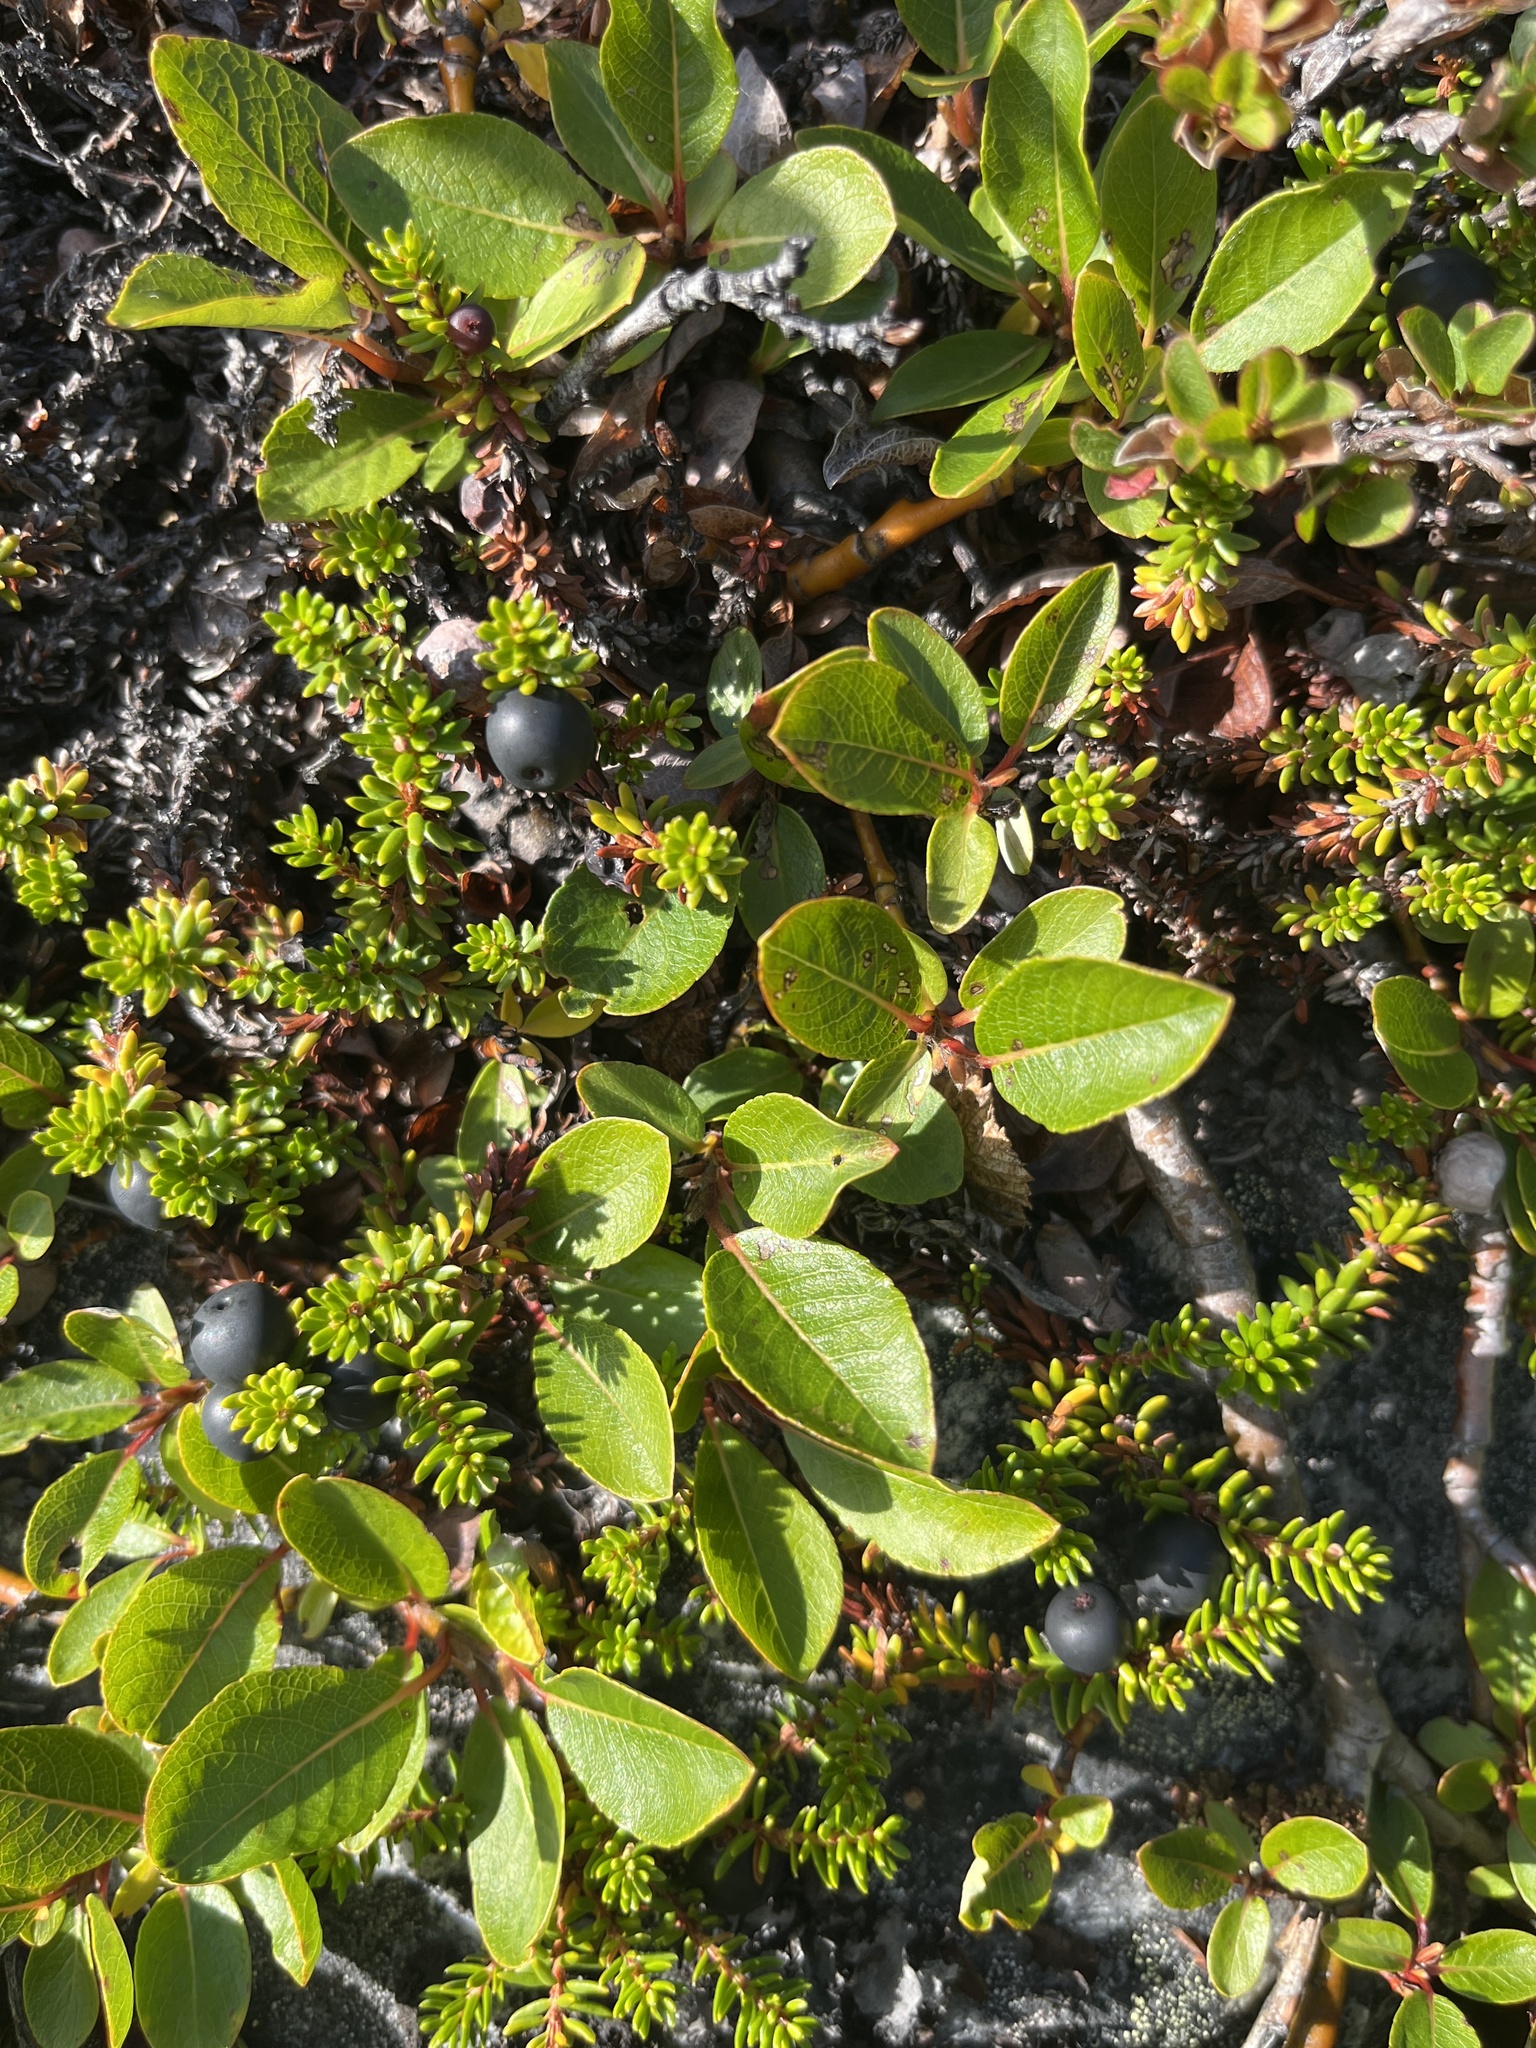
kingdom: Plantae
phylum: Tracheophyta
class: Magnoliopsida
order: Malpighiales
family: Salicaceae
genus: Salix
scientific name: Salix arctophila
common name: Greenland willow
